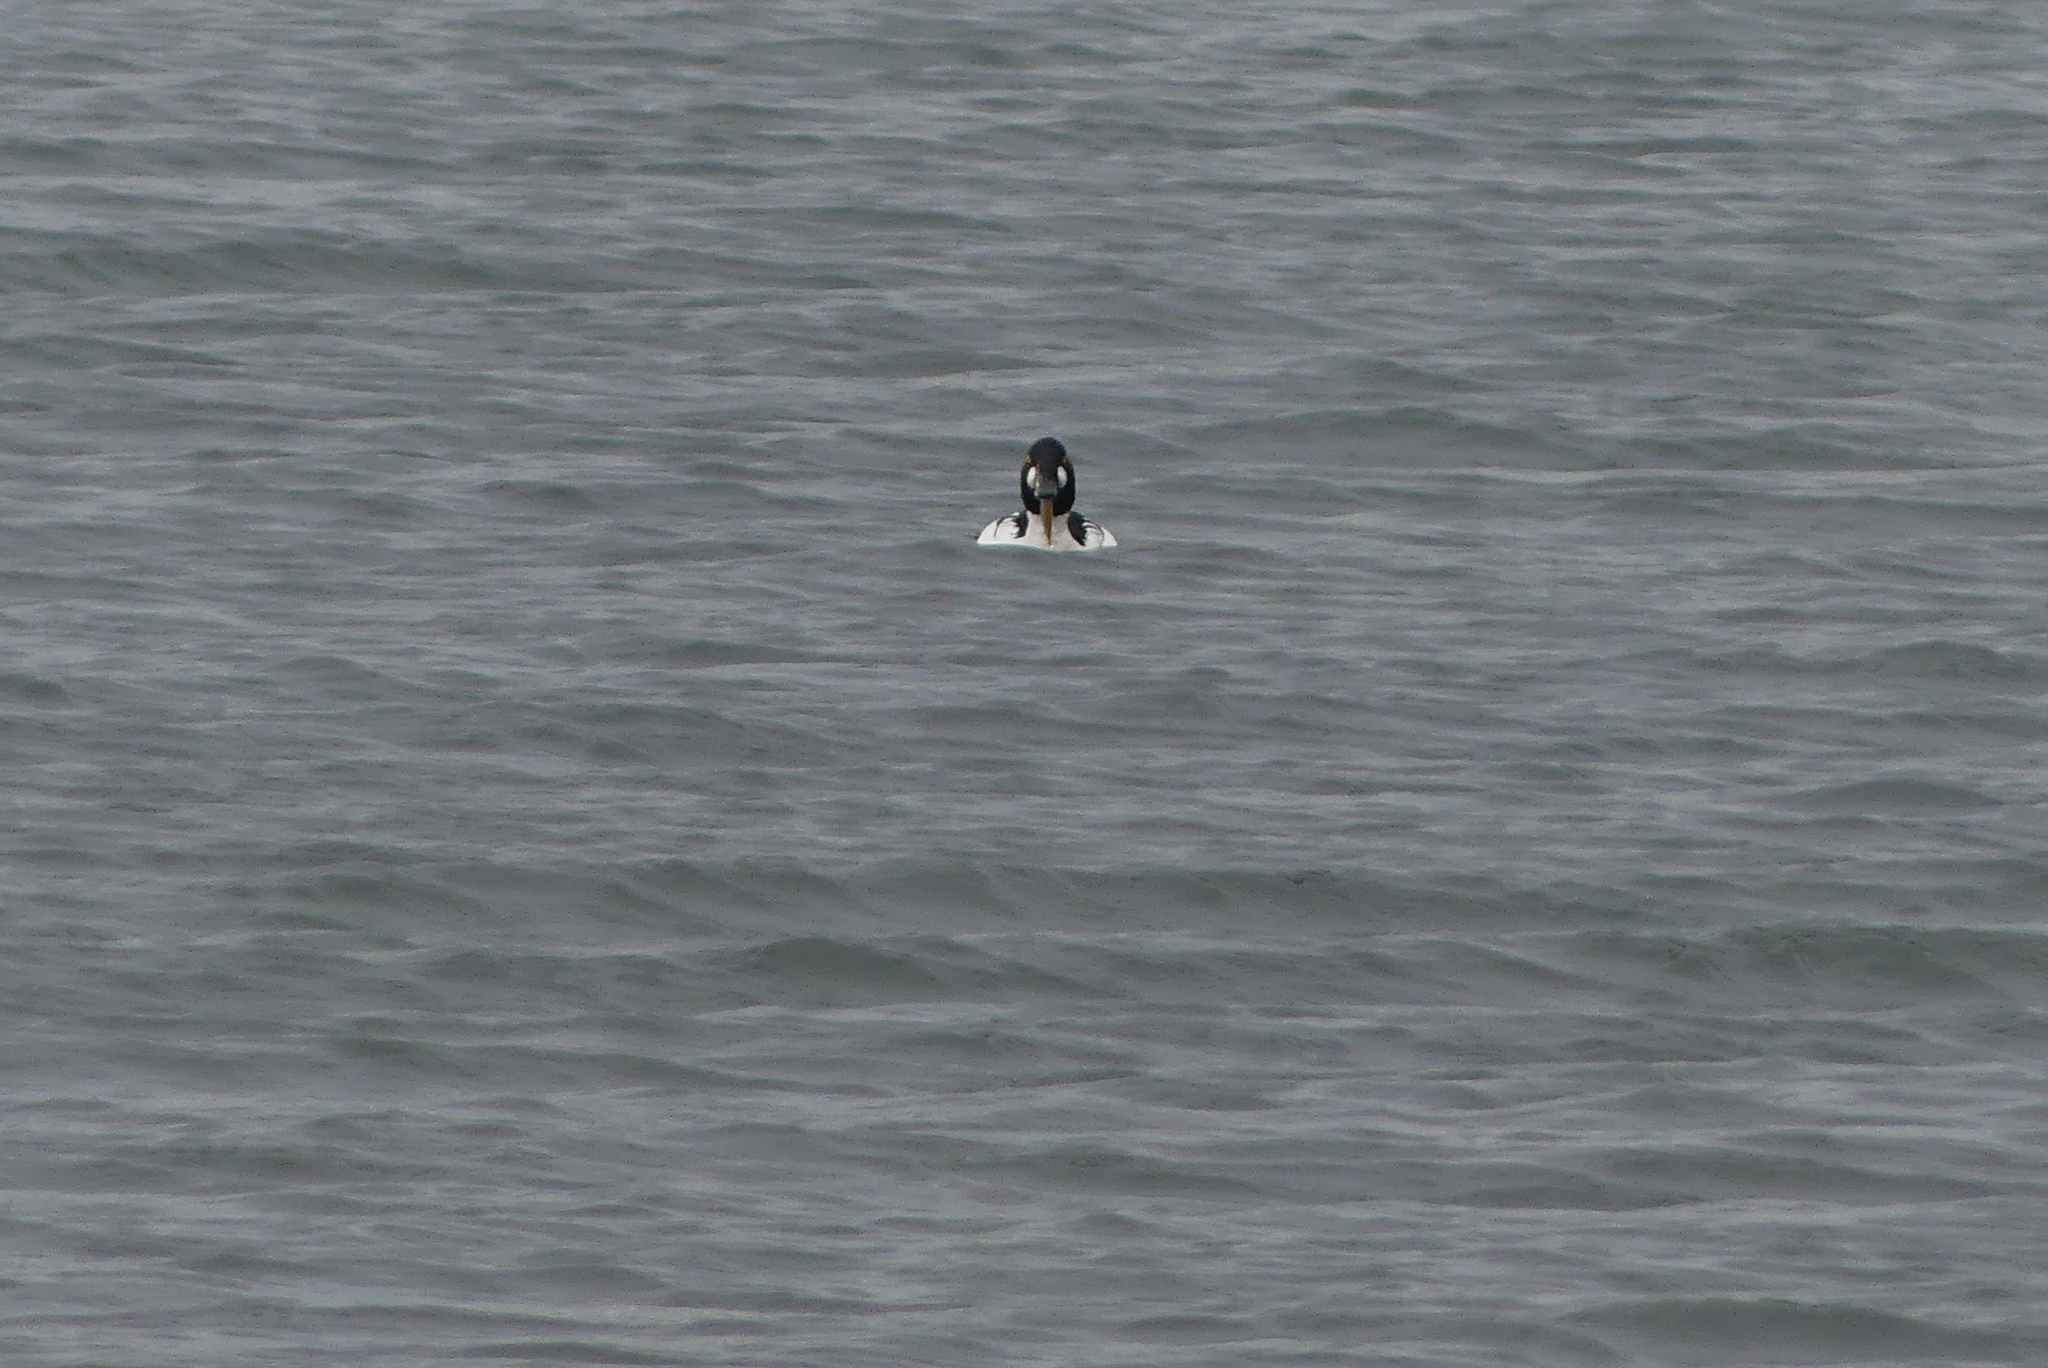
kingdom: Animalia
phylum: Chordata
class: Aves
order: Anseriformes
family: Anatidae
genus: Bucephala
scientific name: Bucephala clangula
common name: Common goldeneye
